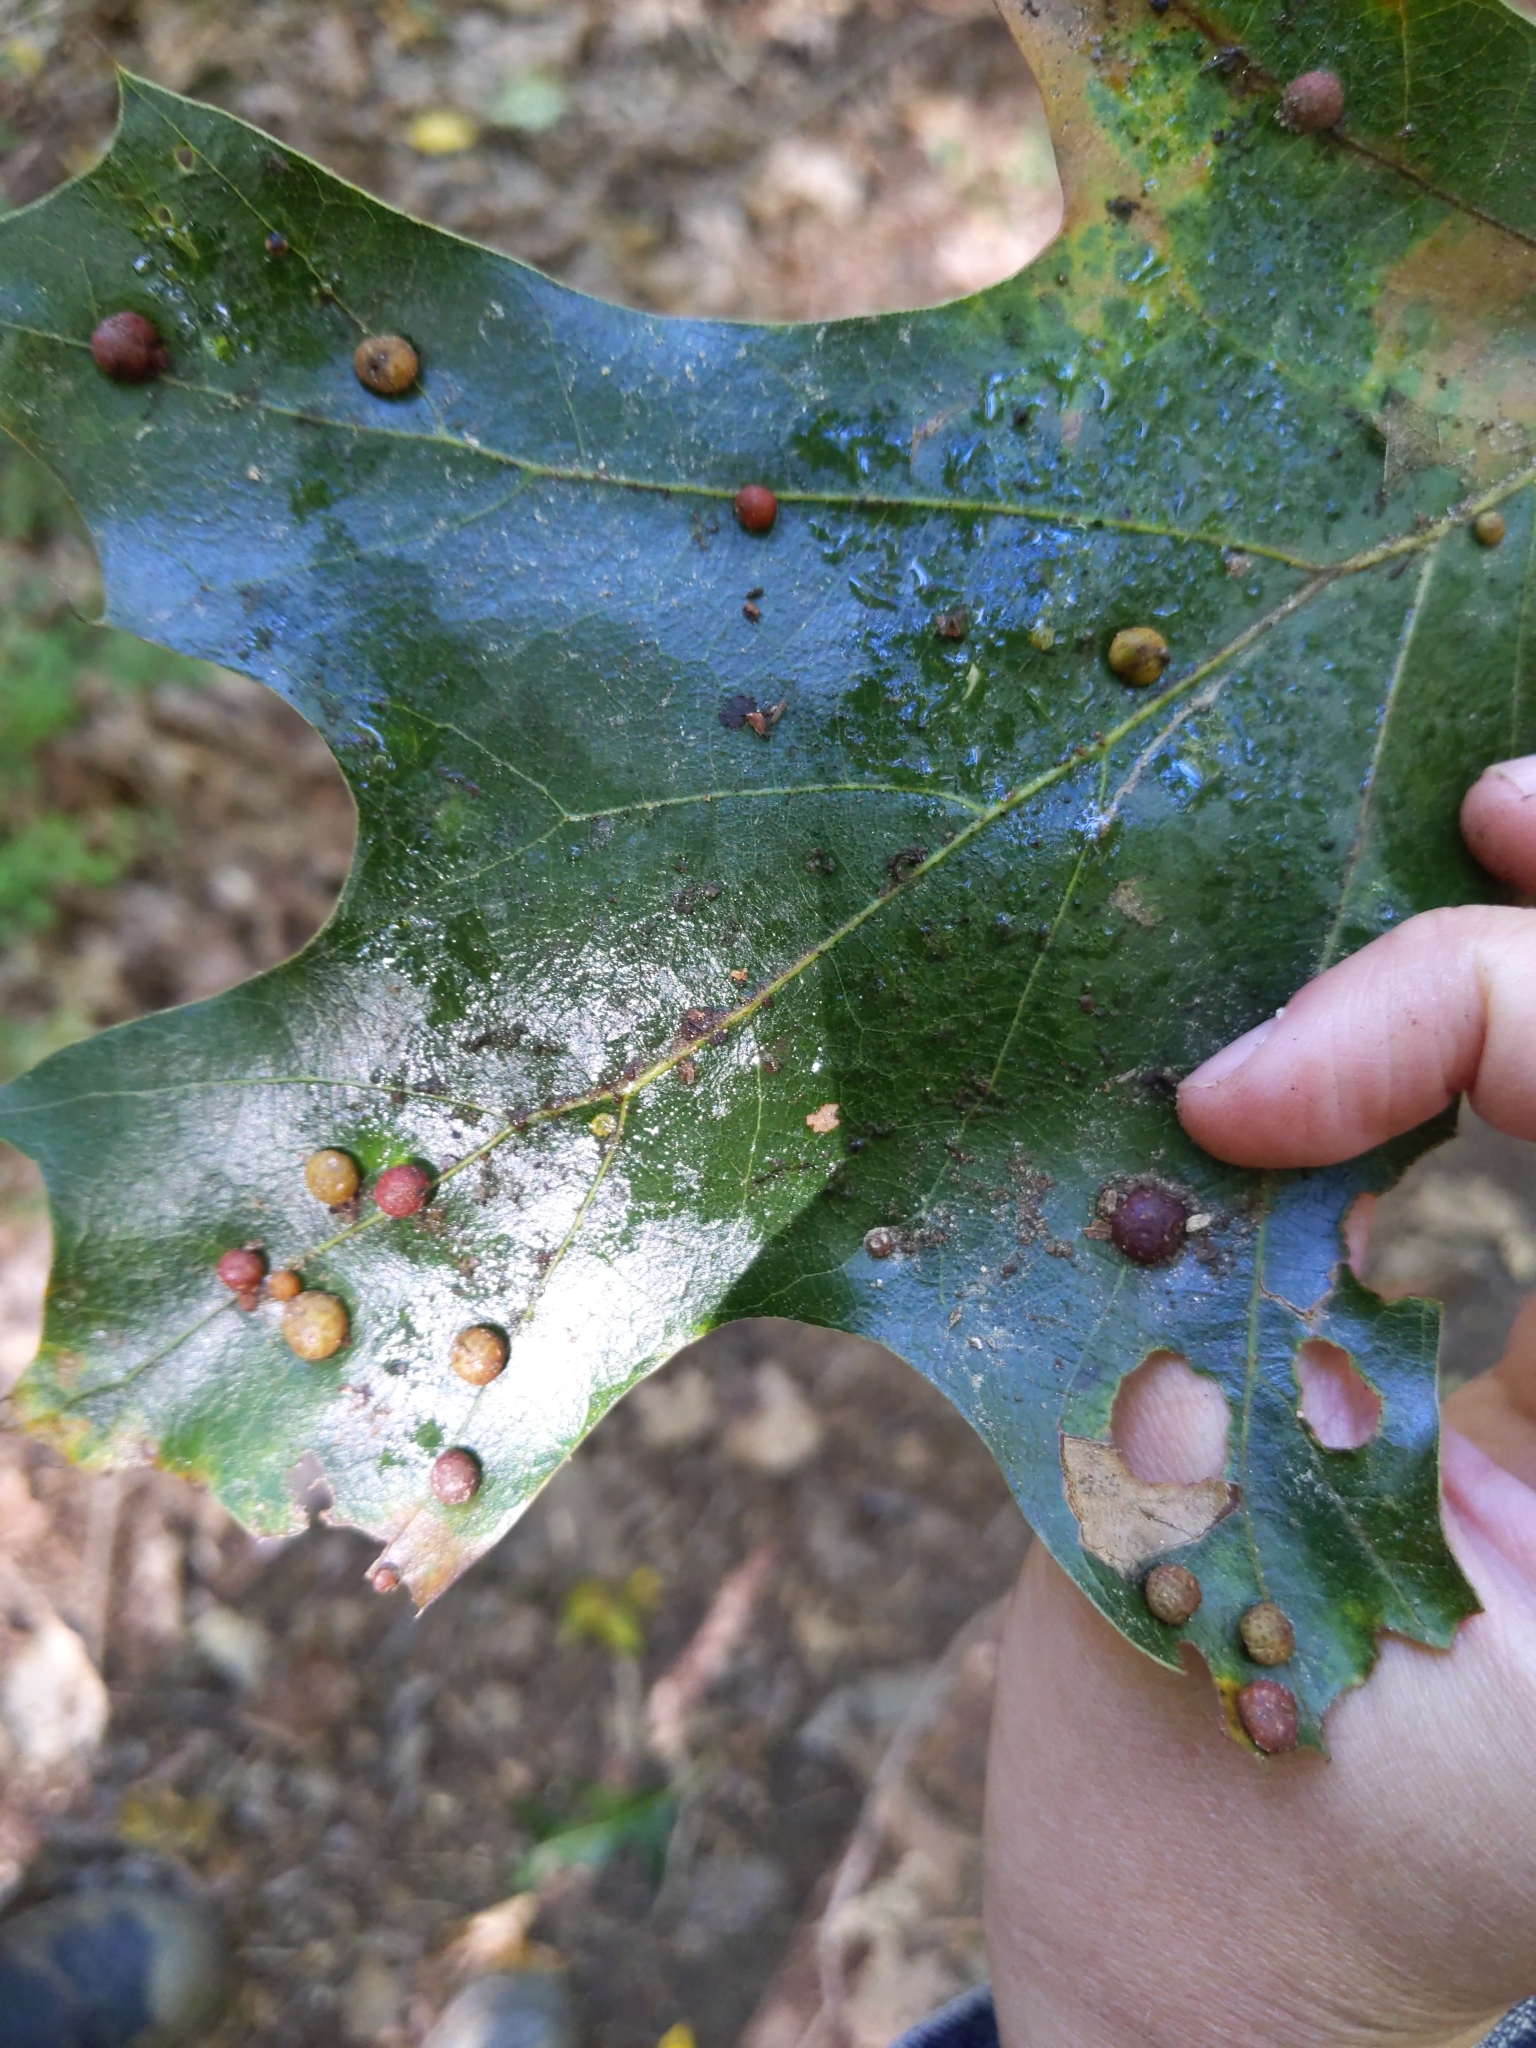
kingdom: Animalia
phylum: Arthropoda
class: Insecta
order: Diptera
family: Cecidomyiidae
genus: Polystepha
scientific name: Polystepha pilulae
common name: Oak leaf gall midge
